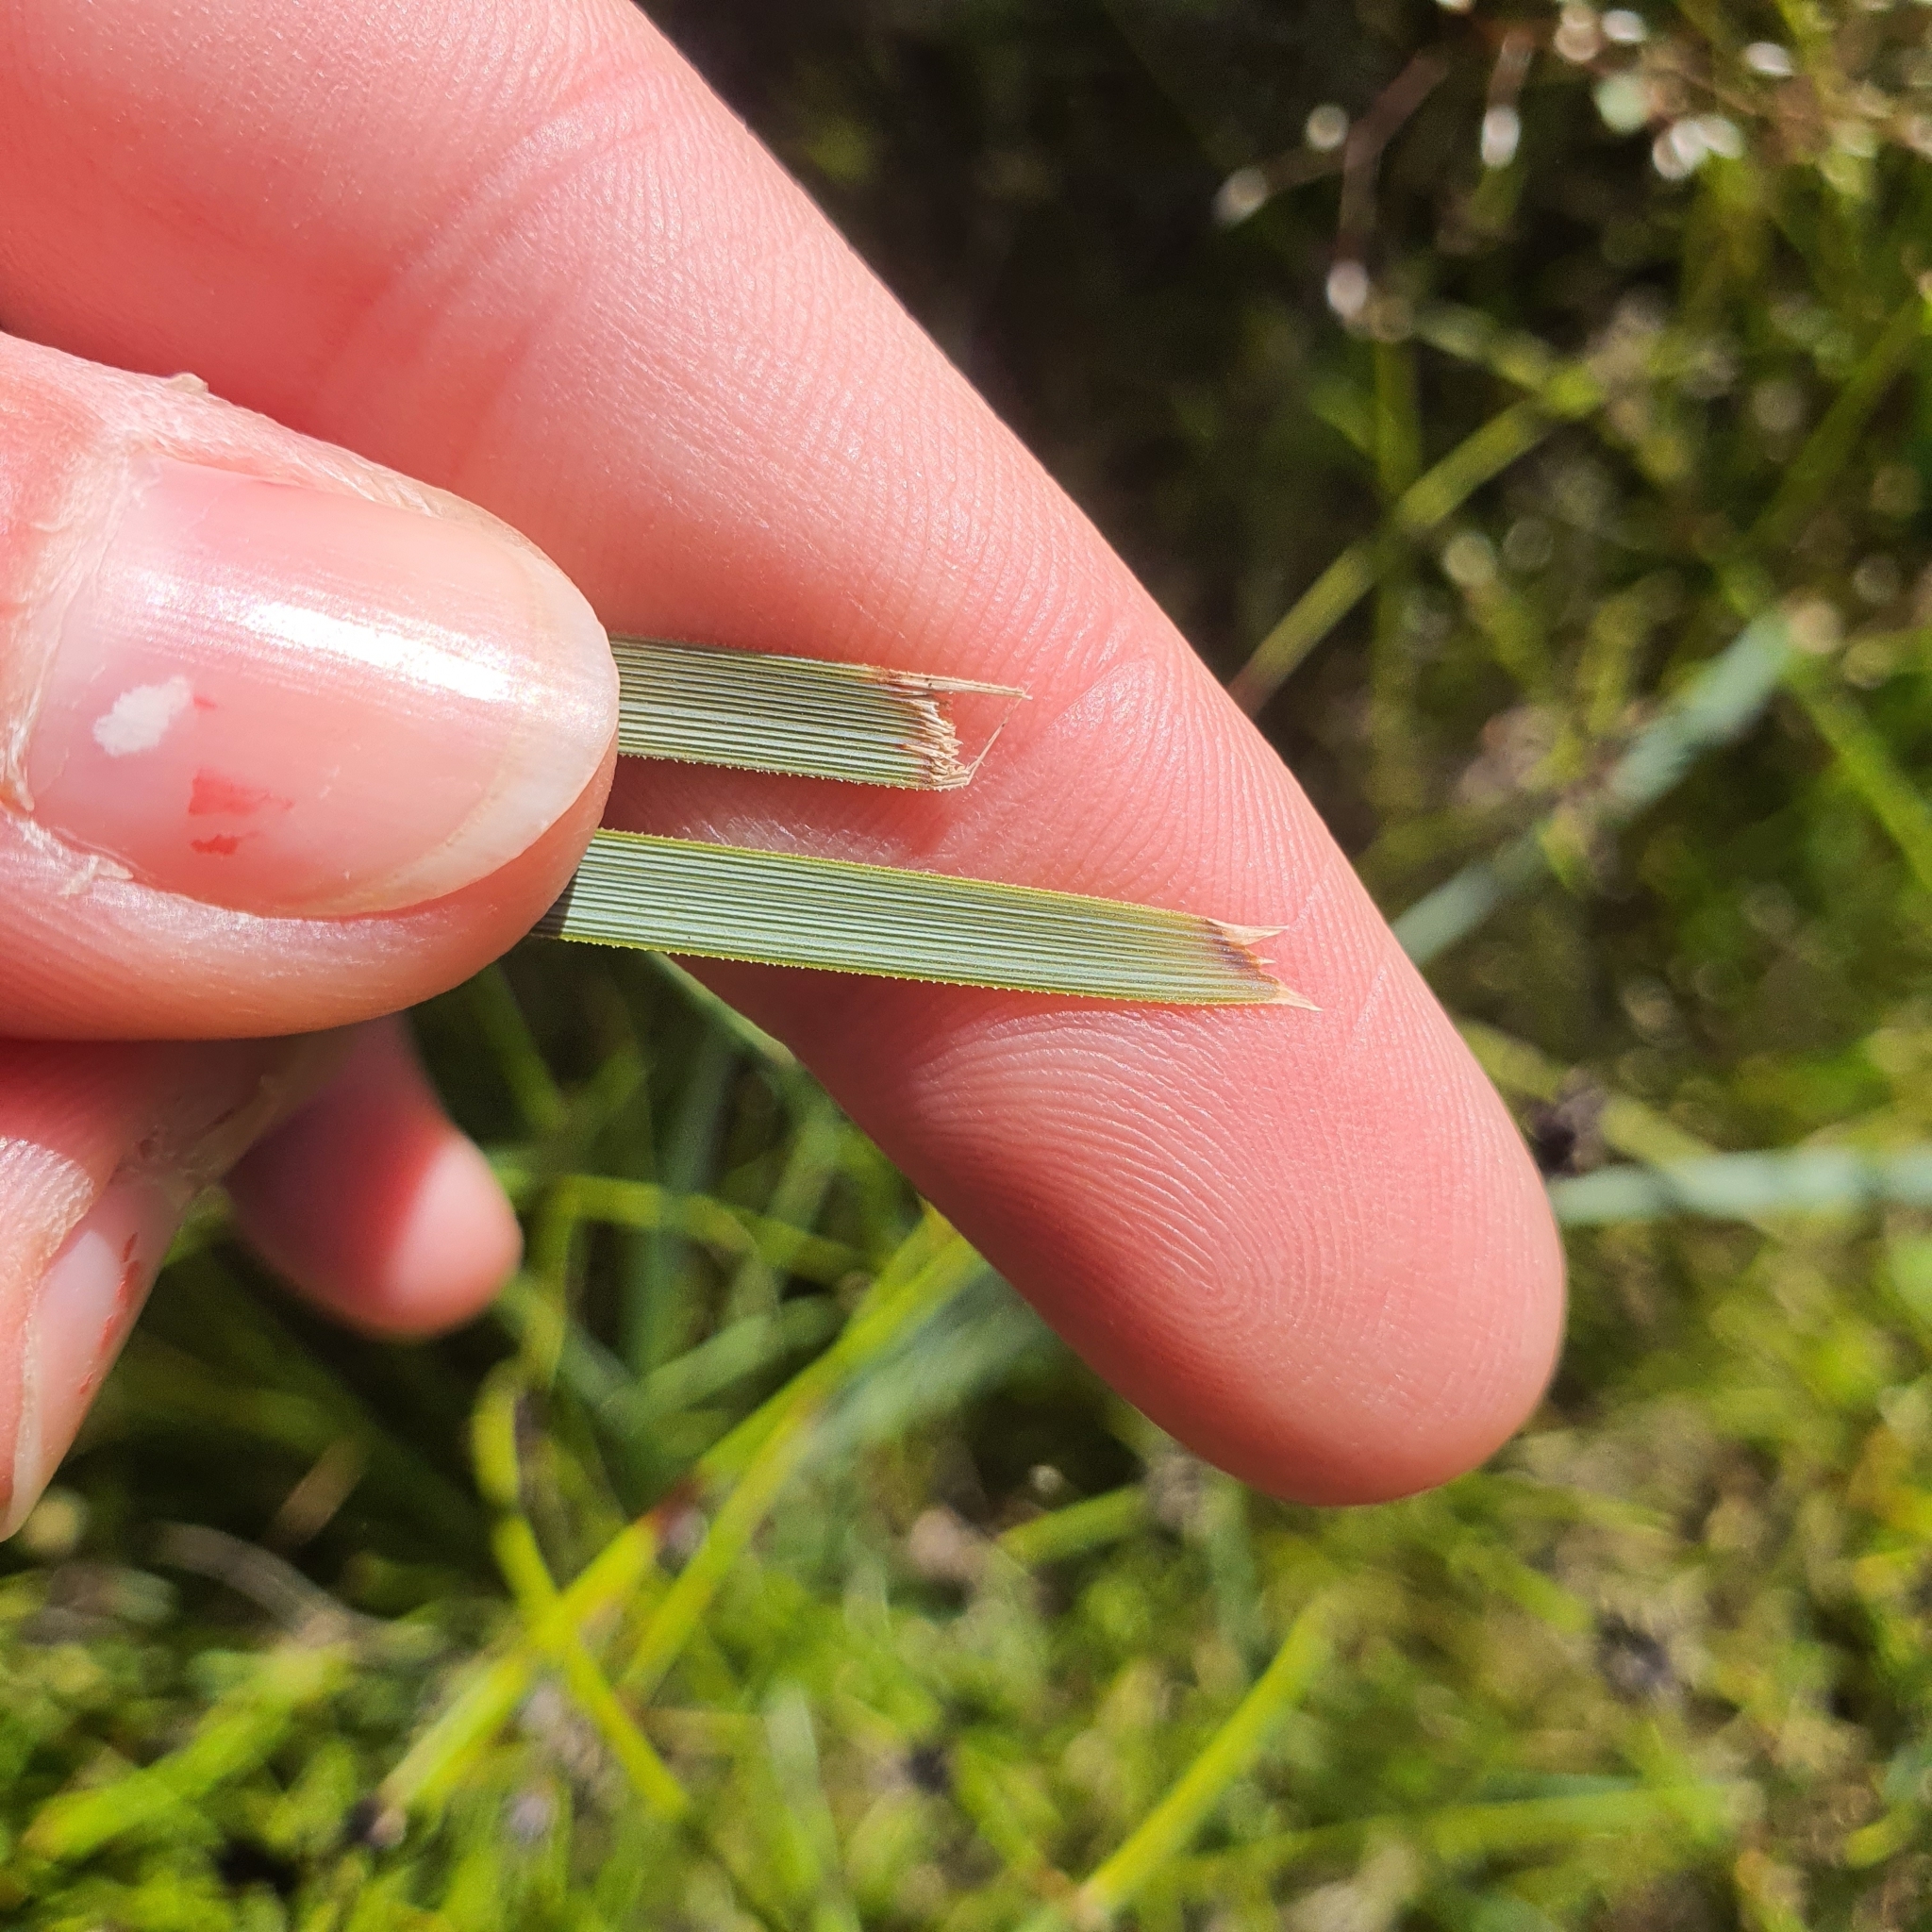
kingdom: Plantae
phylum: Tracheophyta
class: Liliopsida
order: Asparagales
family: Asparagaceae
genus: Lomandra
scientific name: Lomandra
